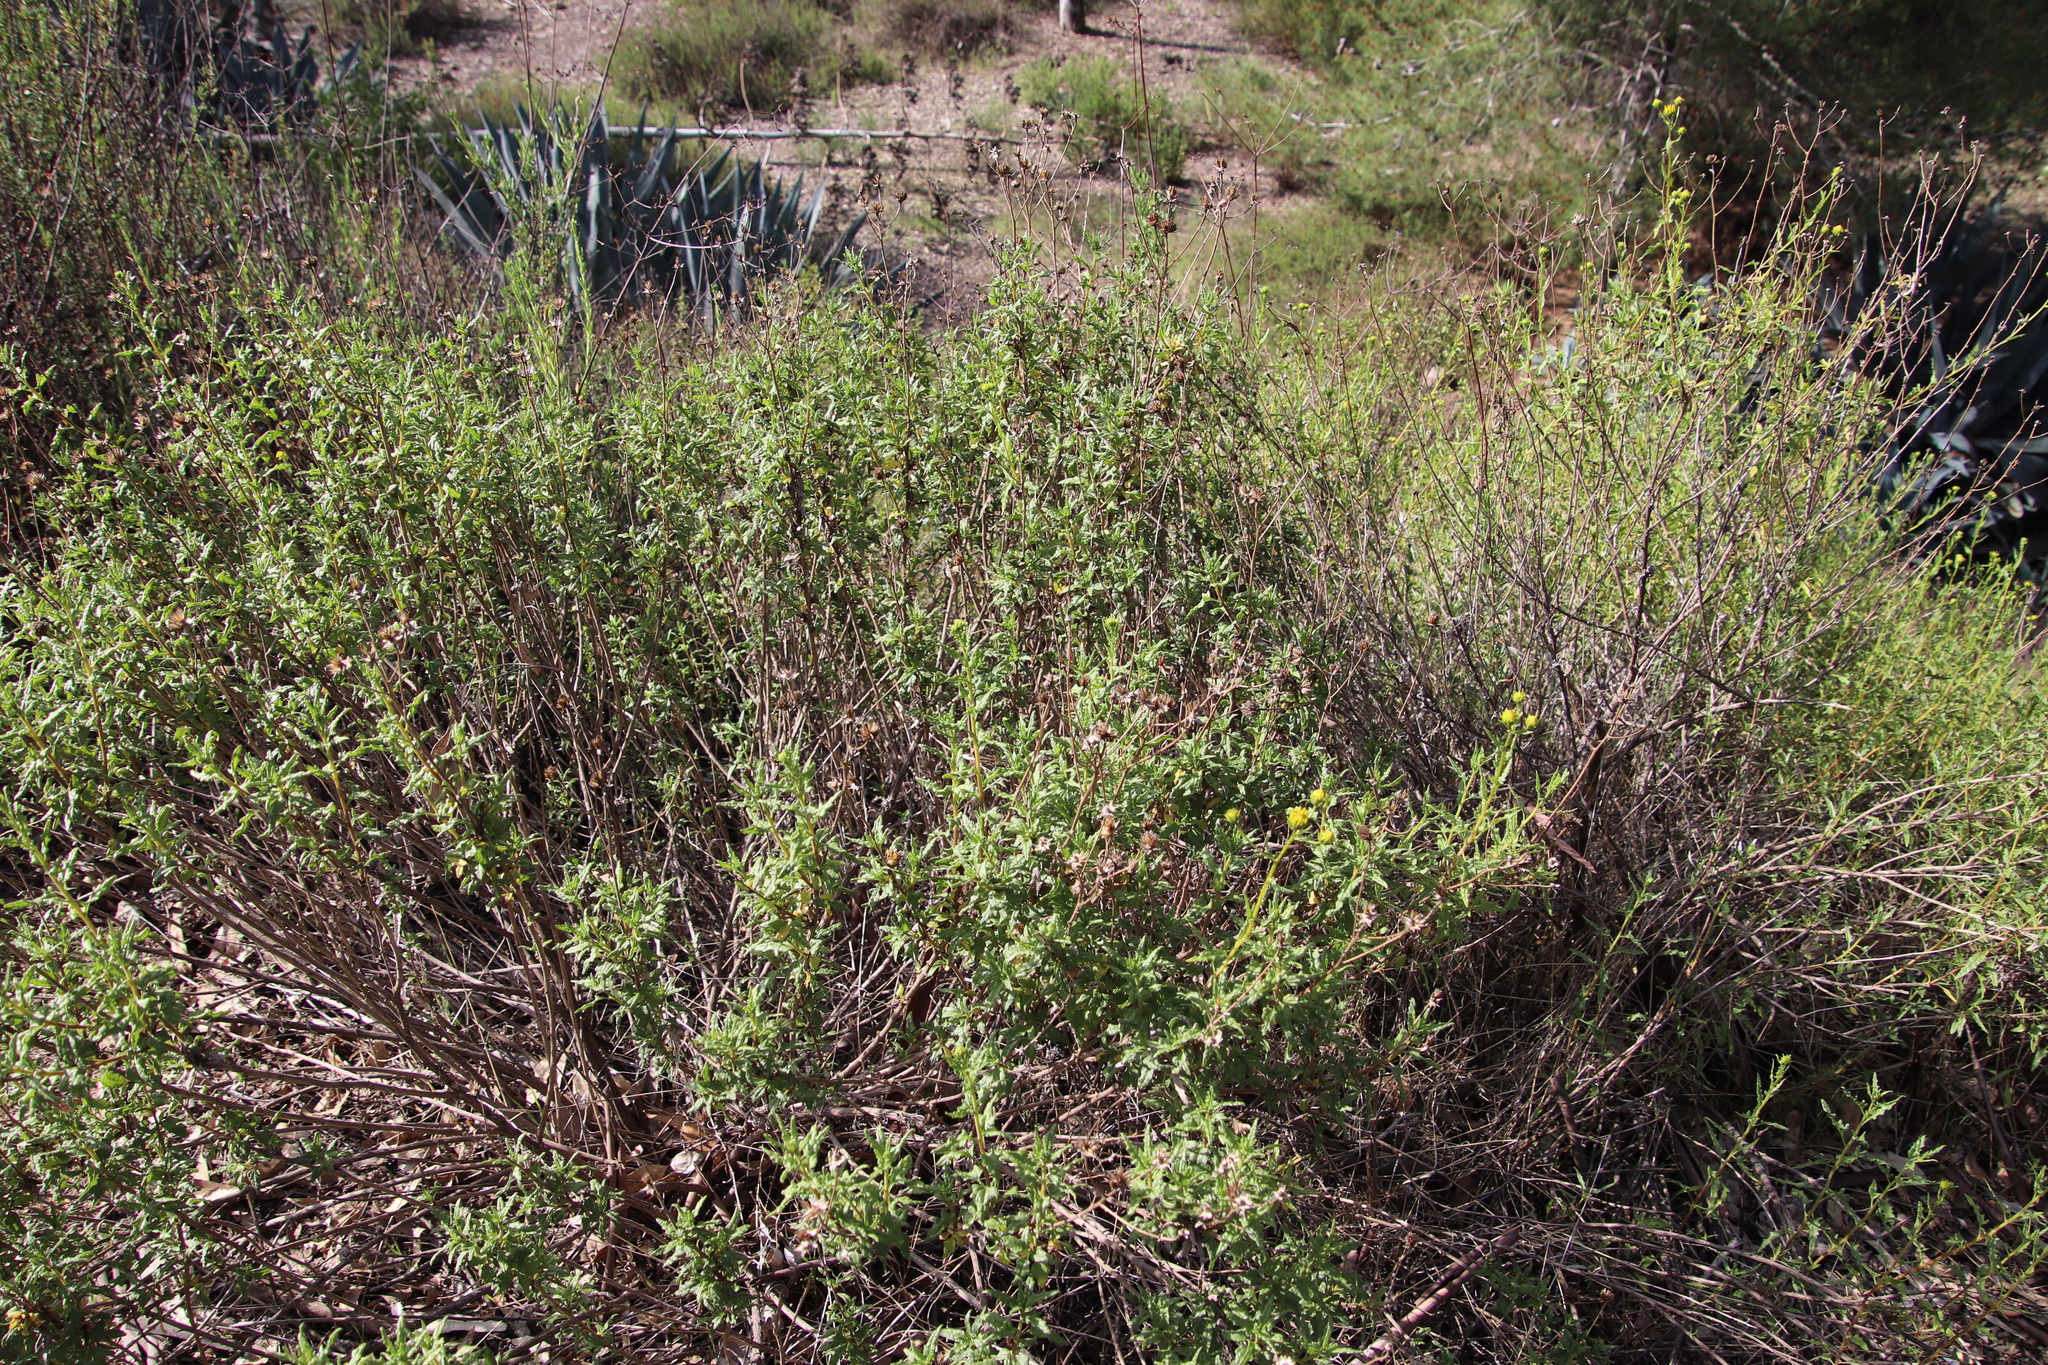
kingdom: Plantae
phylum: Tracheophyta
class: Magnoliopsida
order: Asterales
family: Asteraceae
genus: Bahiopsis
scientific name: Bahiopsis laciniata
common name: San diego county viguiera
